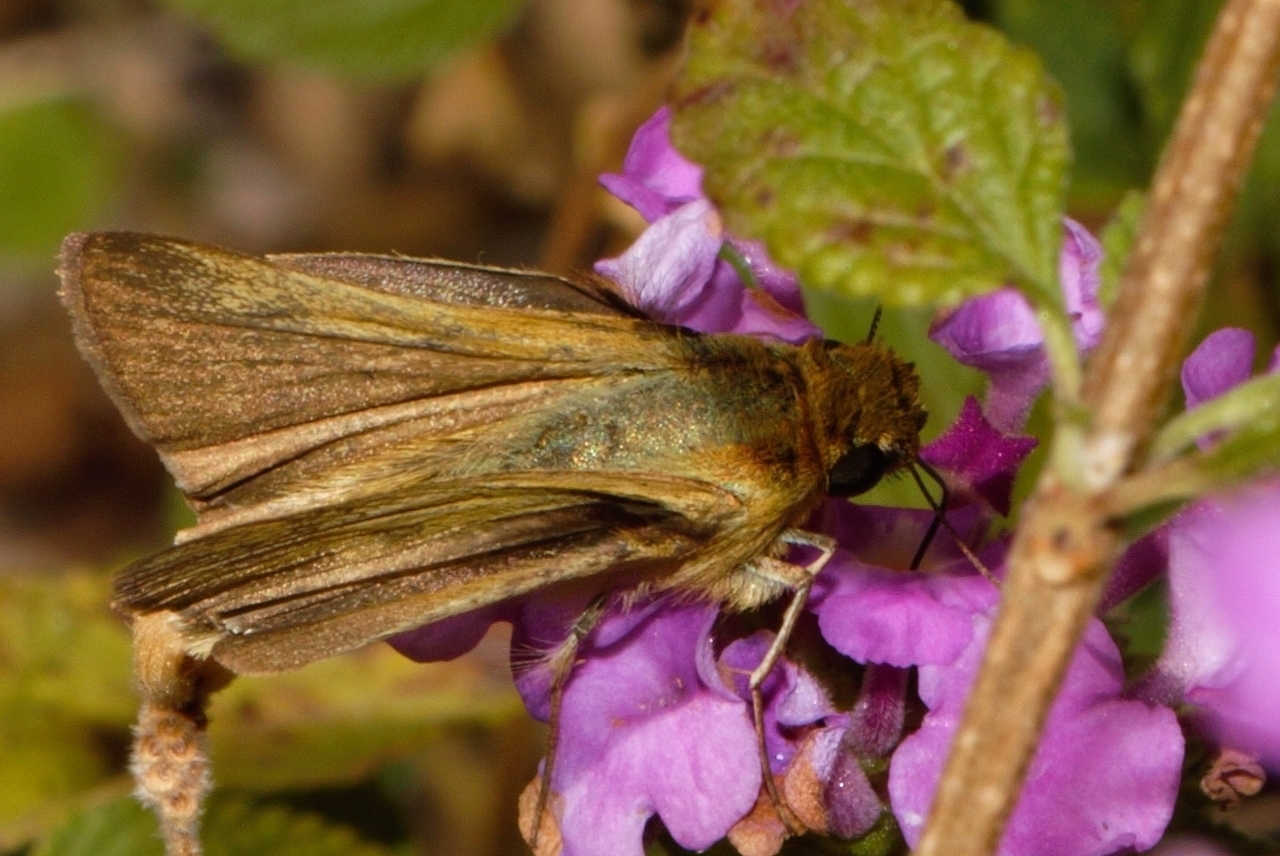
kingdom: Animalia
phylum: Arthropoda
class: Insecta
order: Lepidoptera
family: Hesperiidae
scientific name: Hesperiidae
